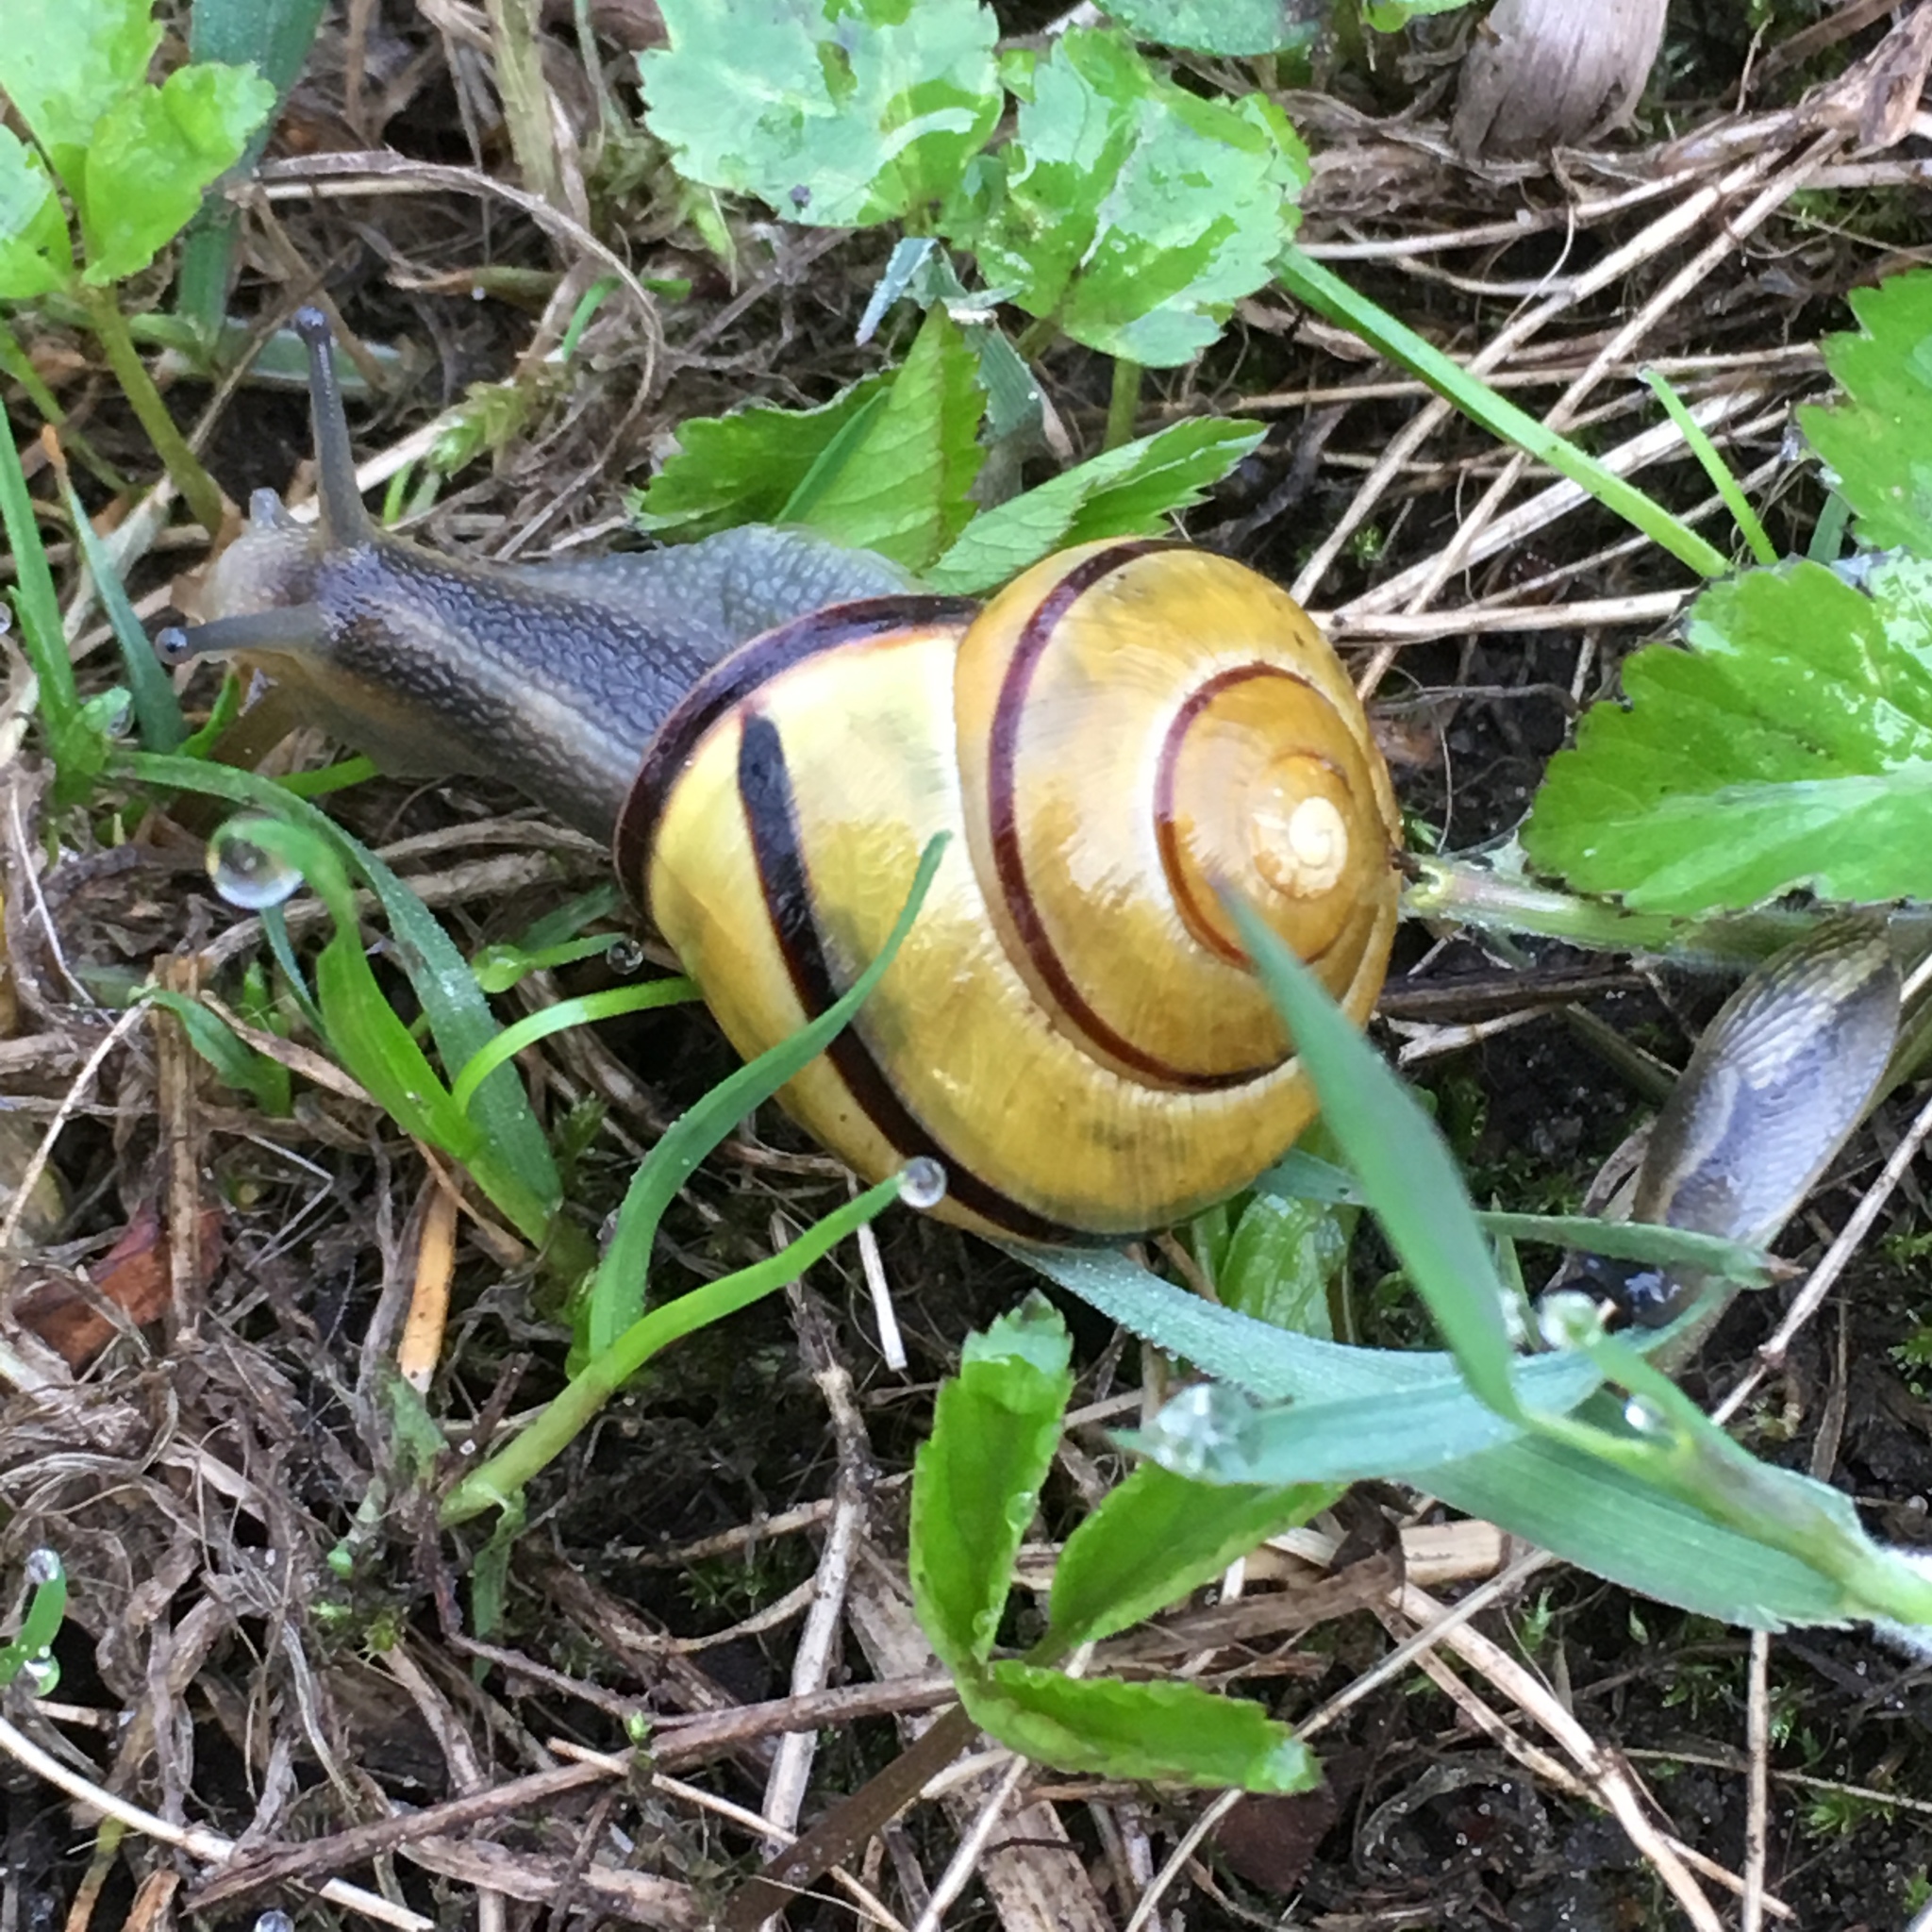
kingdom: Animalia
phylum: Mollusca
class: Gastropoda
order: Stylommatophora
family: Helicidae
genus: Cepaea
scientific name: Cepaea nemoralis
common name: Grovesnail
